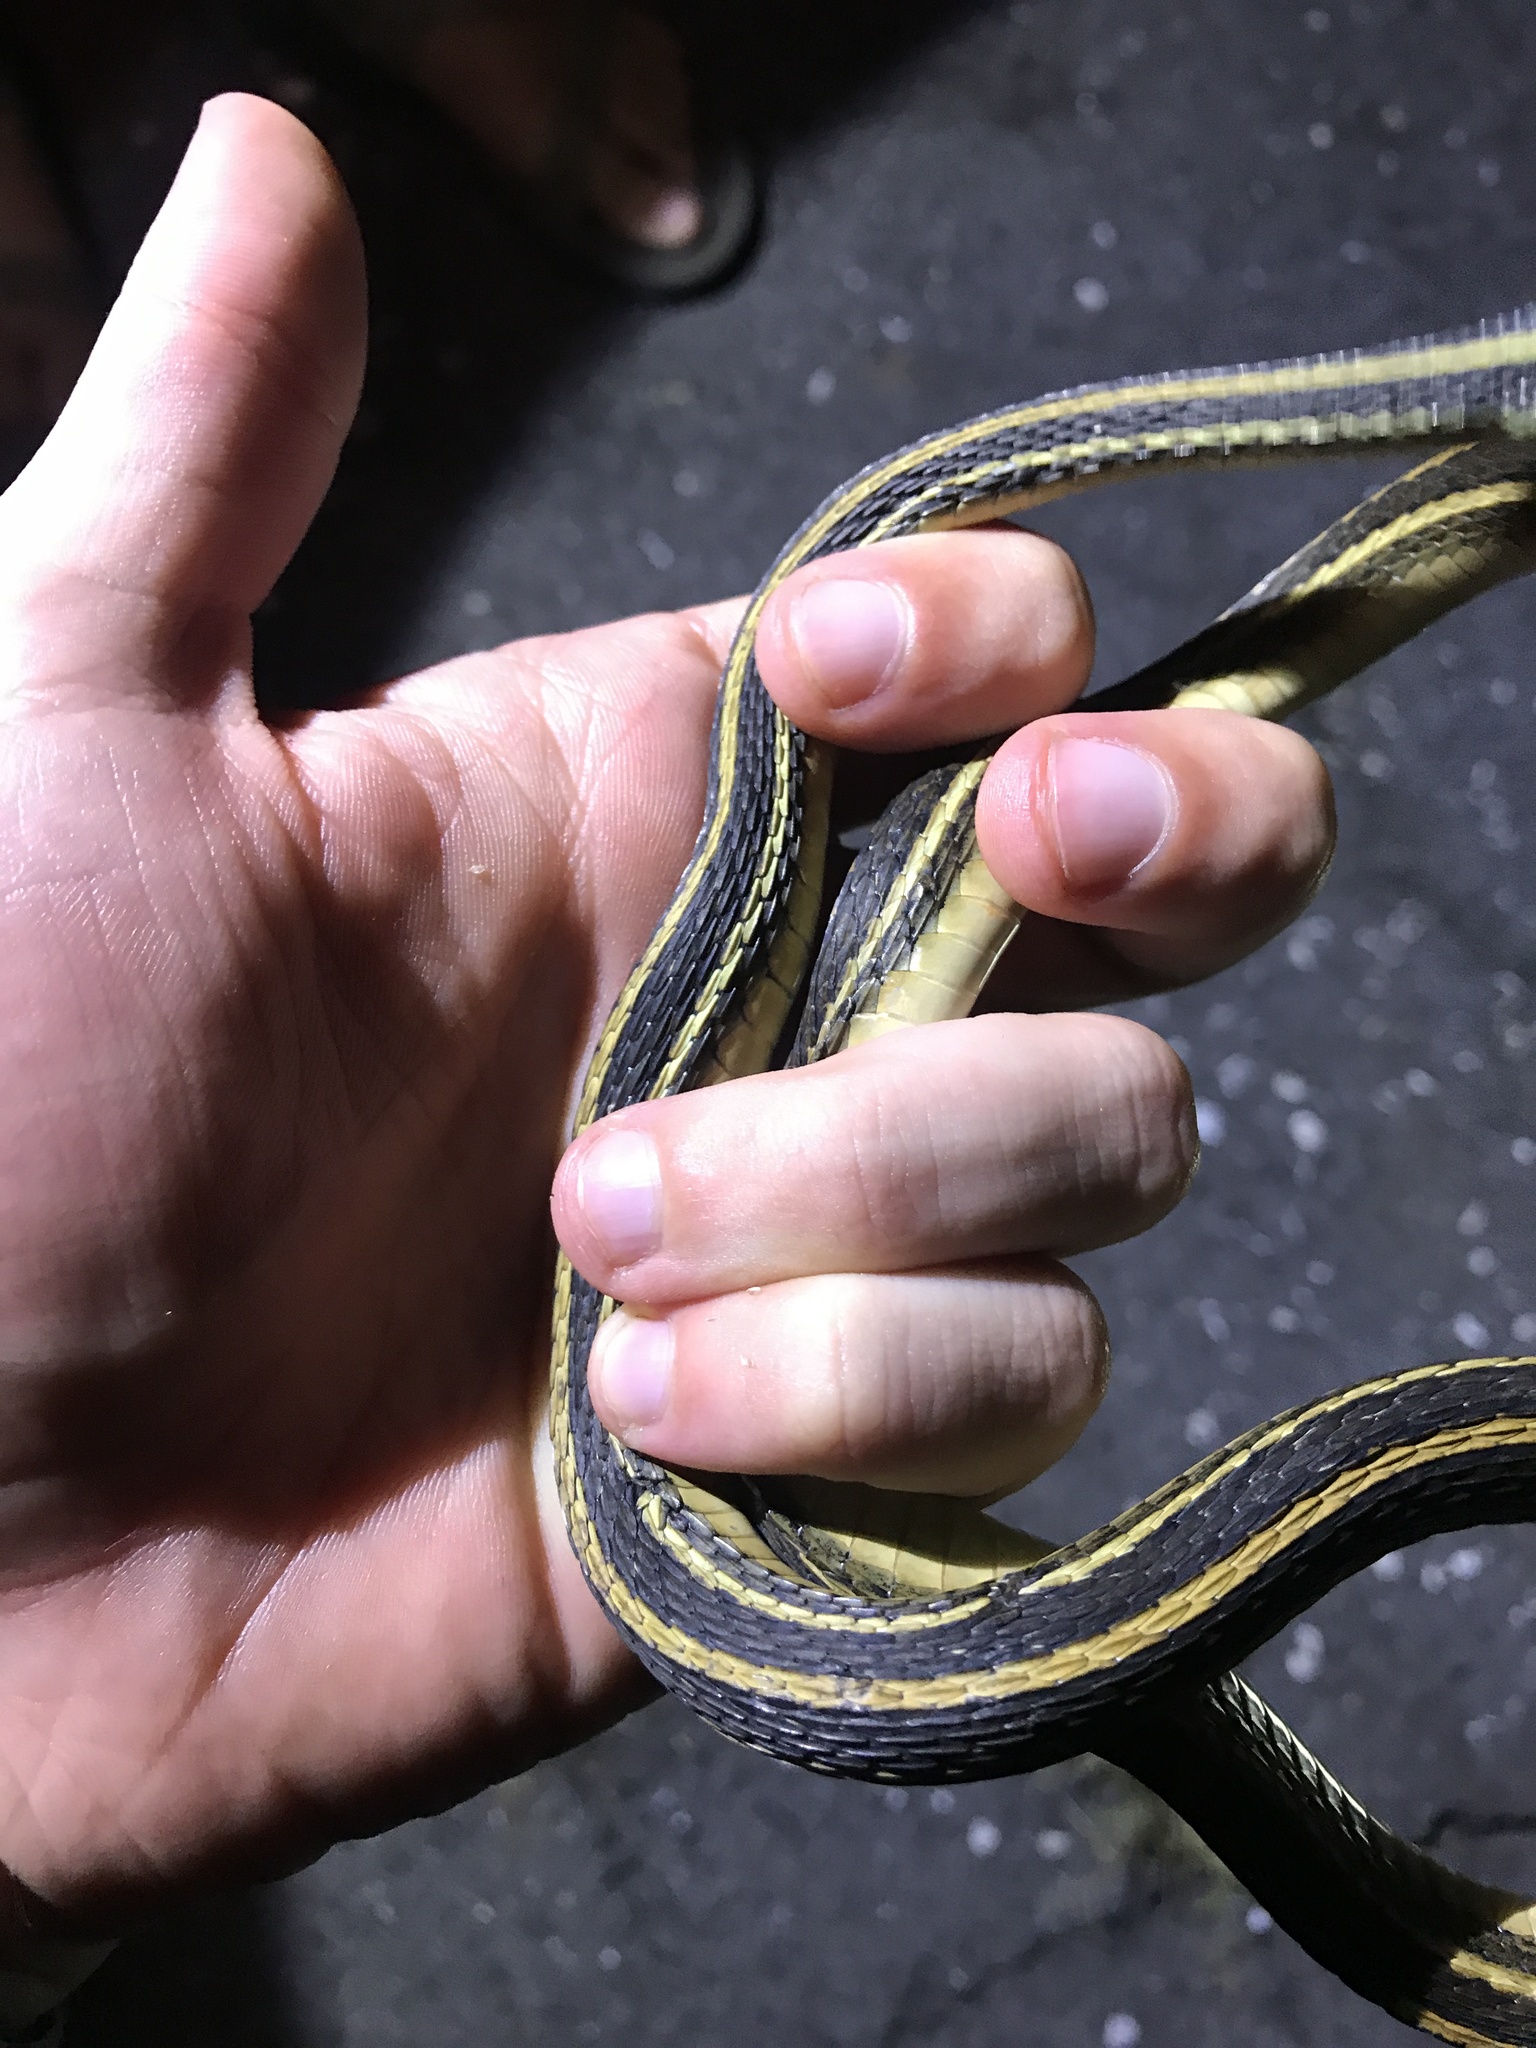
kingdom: Animalia
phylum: Chordata
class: Squamata
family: Colubridae
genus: Thamnophis
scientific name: Thamnophis proximus
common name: Western ribbon snake
